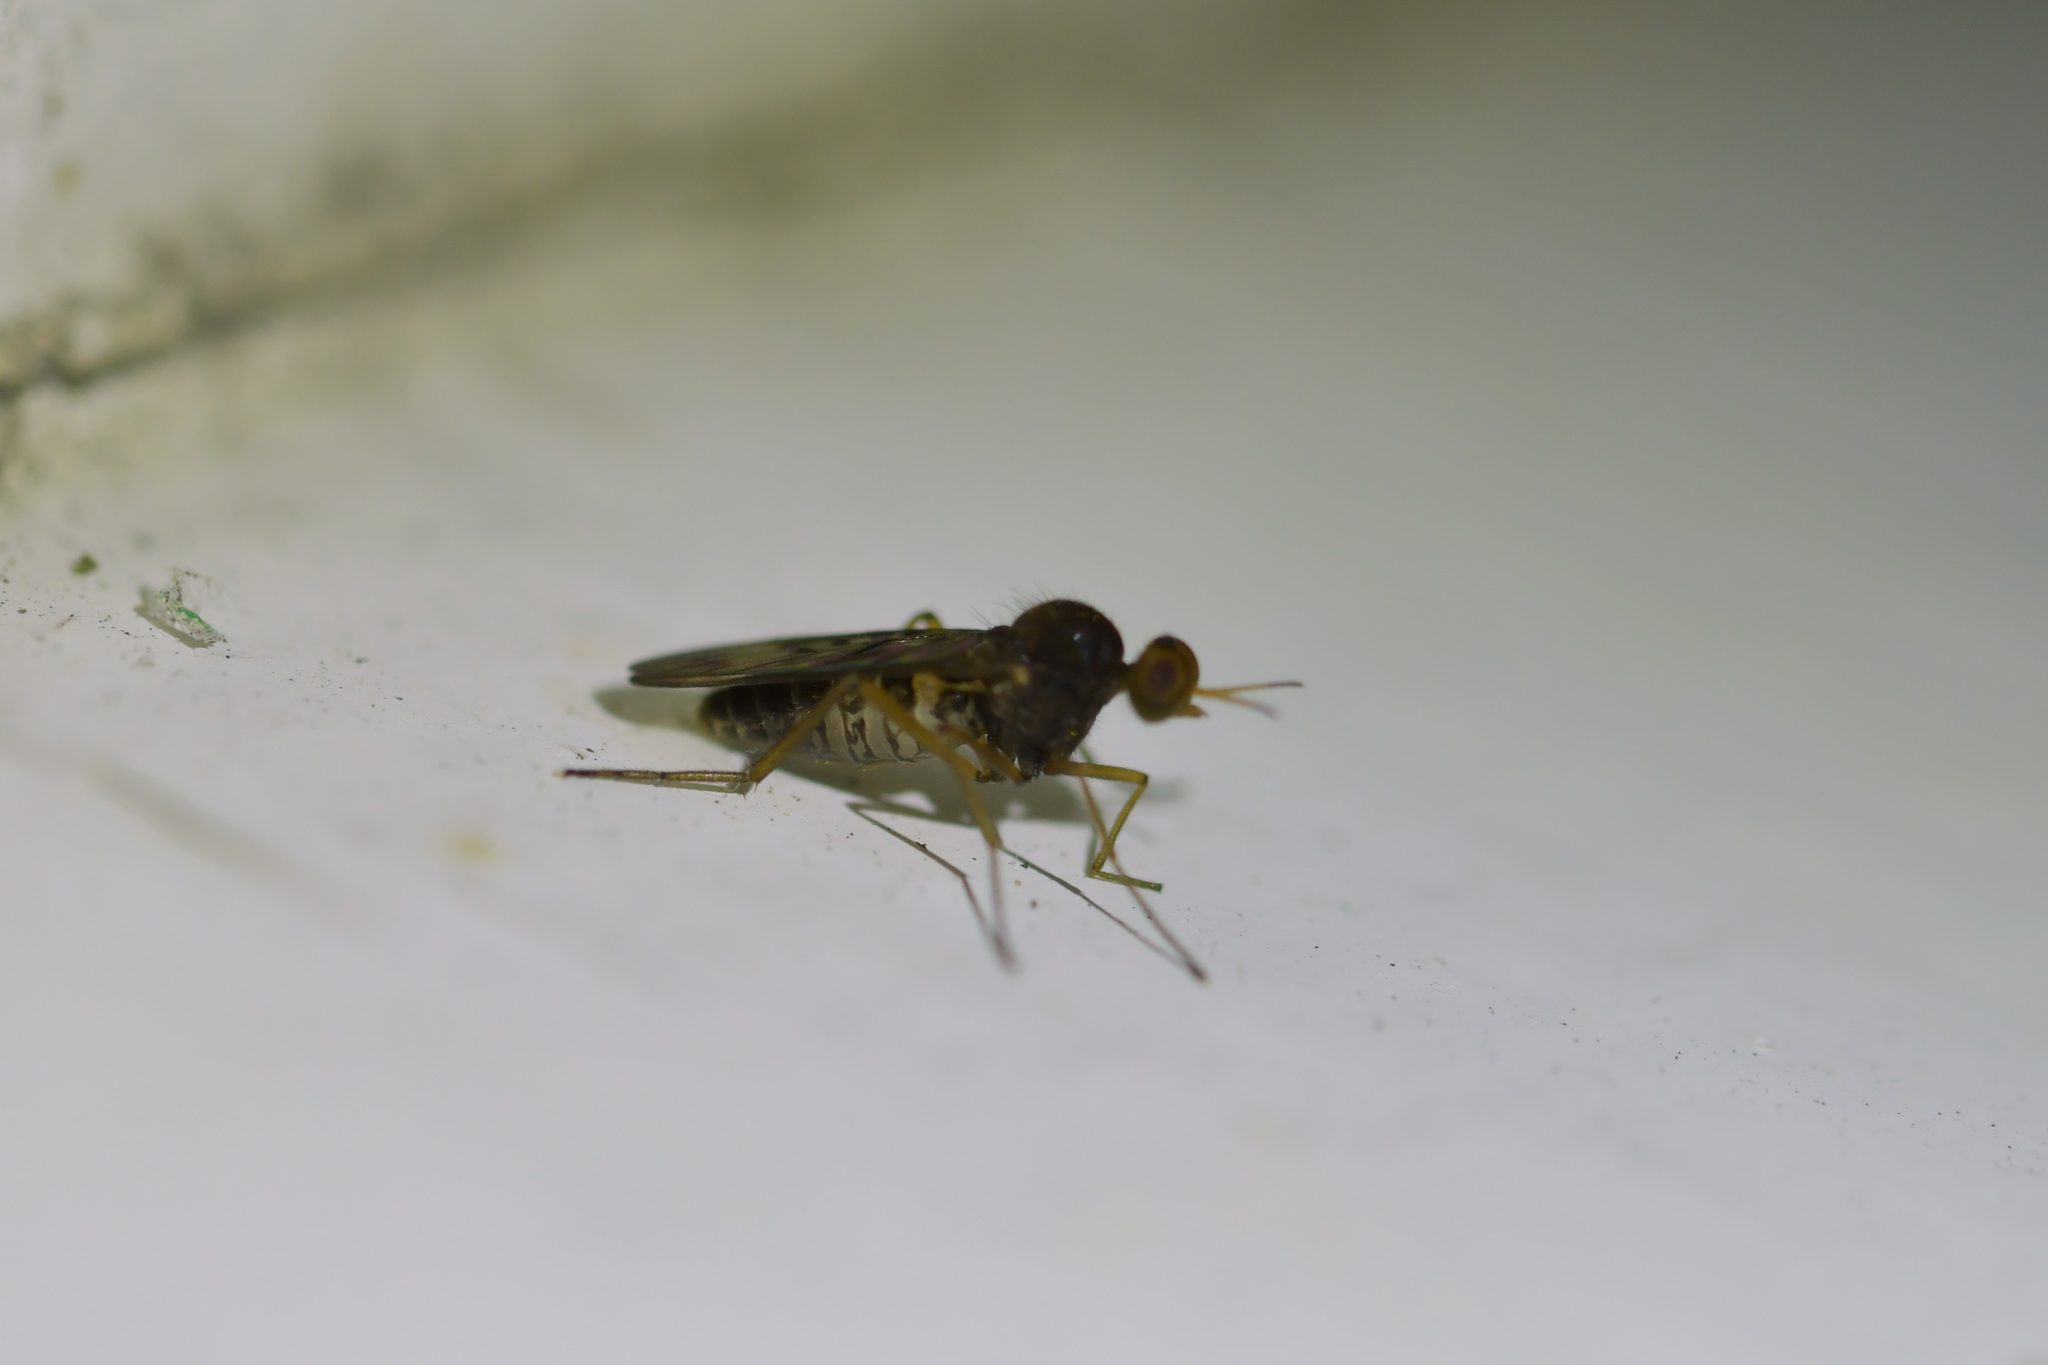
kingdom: Animalia
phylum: Arthropoda
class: Insecta
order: Diptera
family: Anisopodidae
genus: Sylvicola
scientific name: Sylvicola neozelandicus
